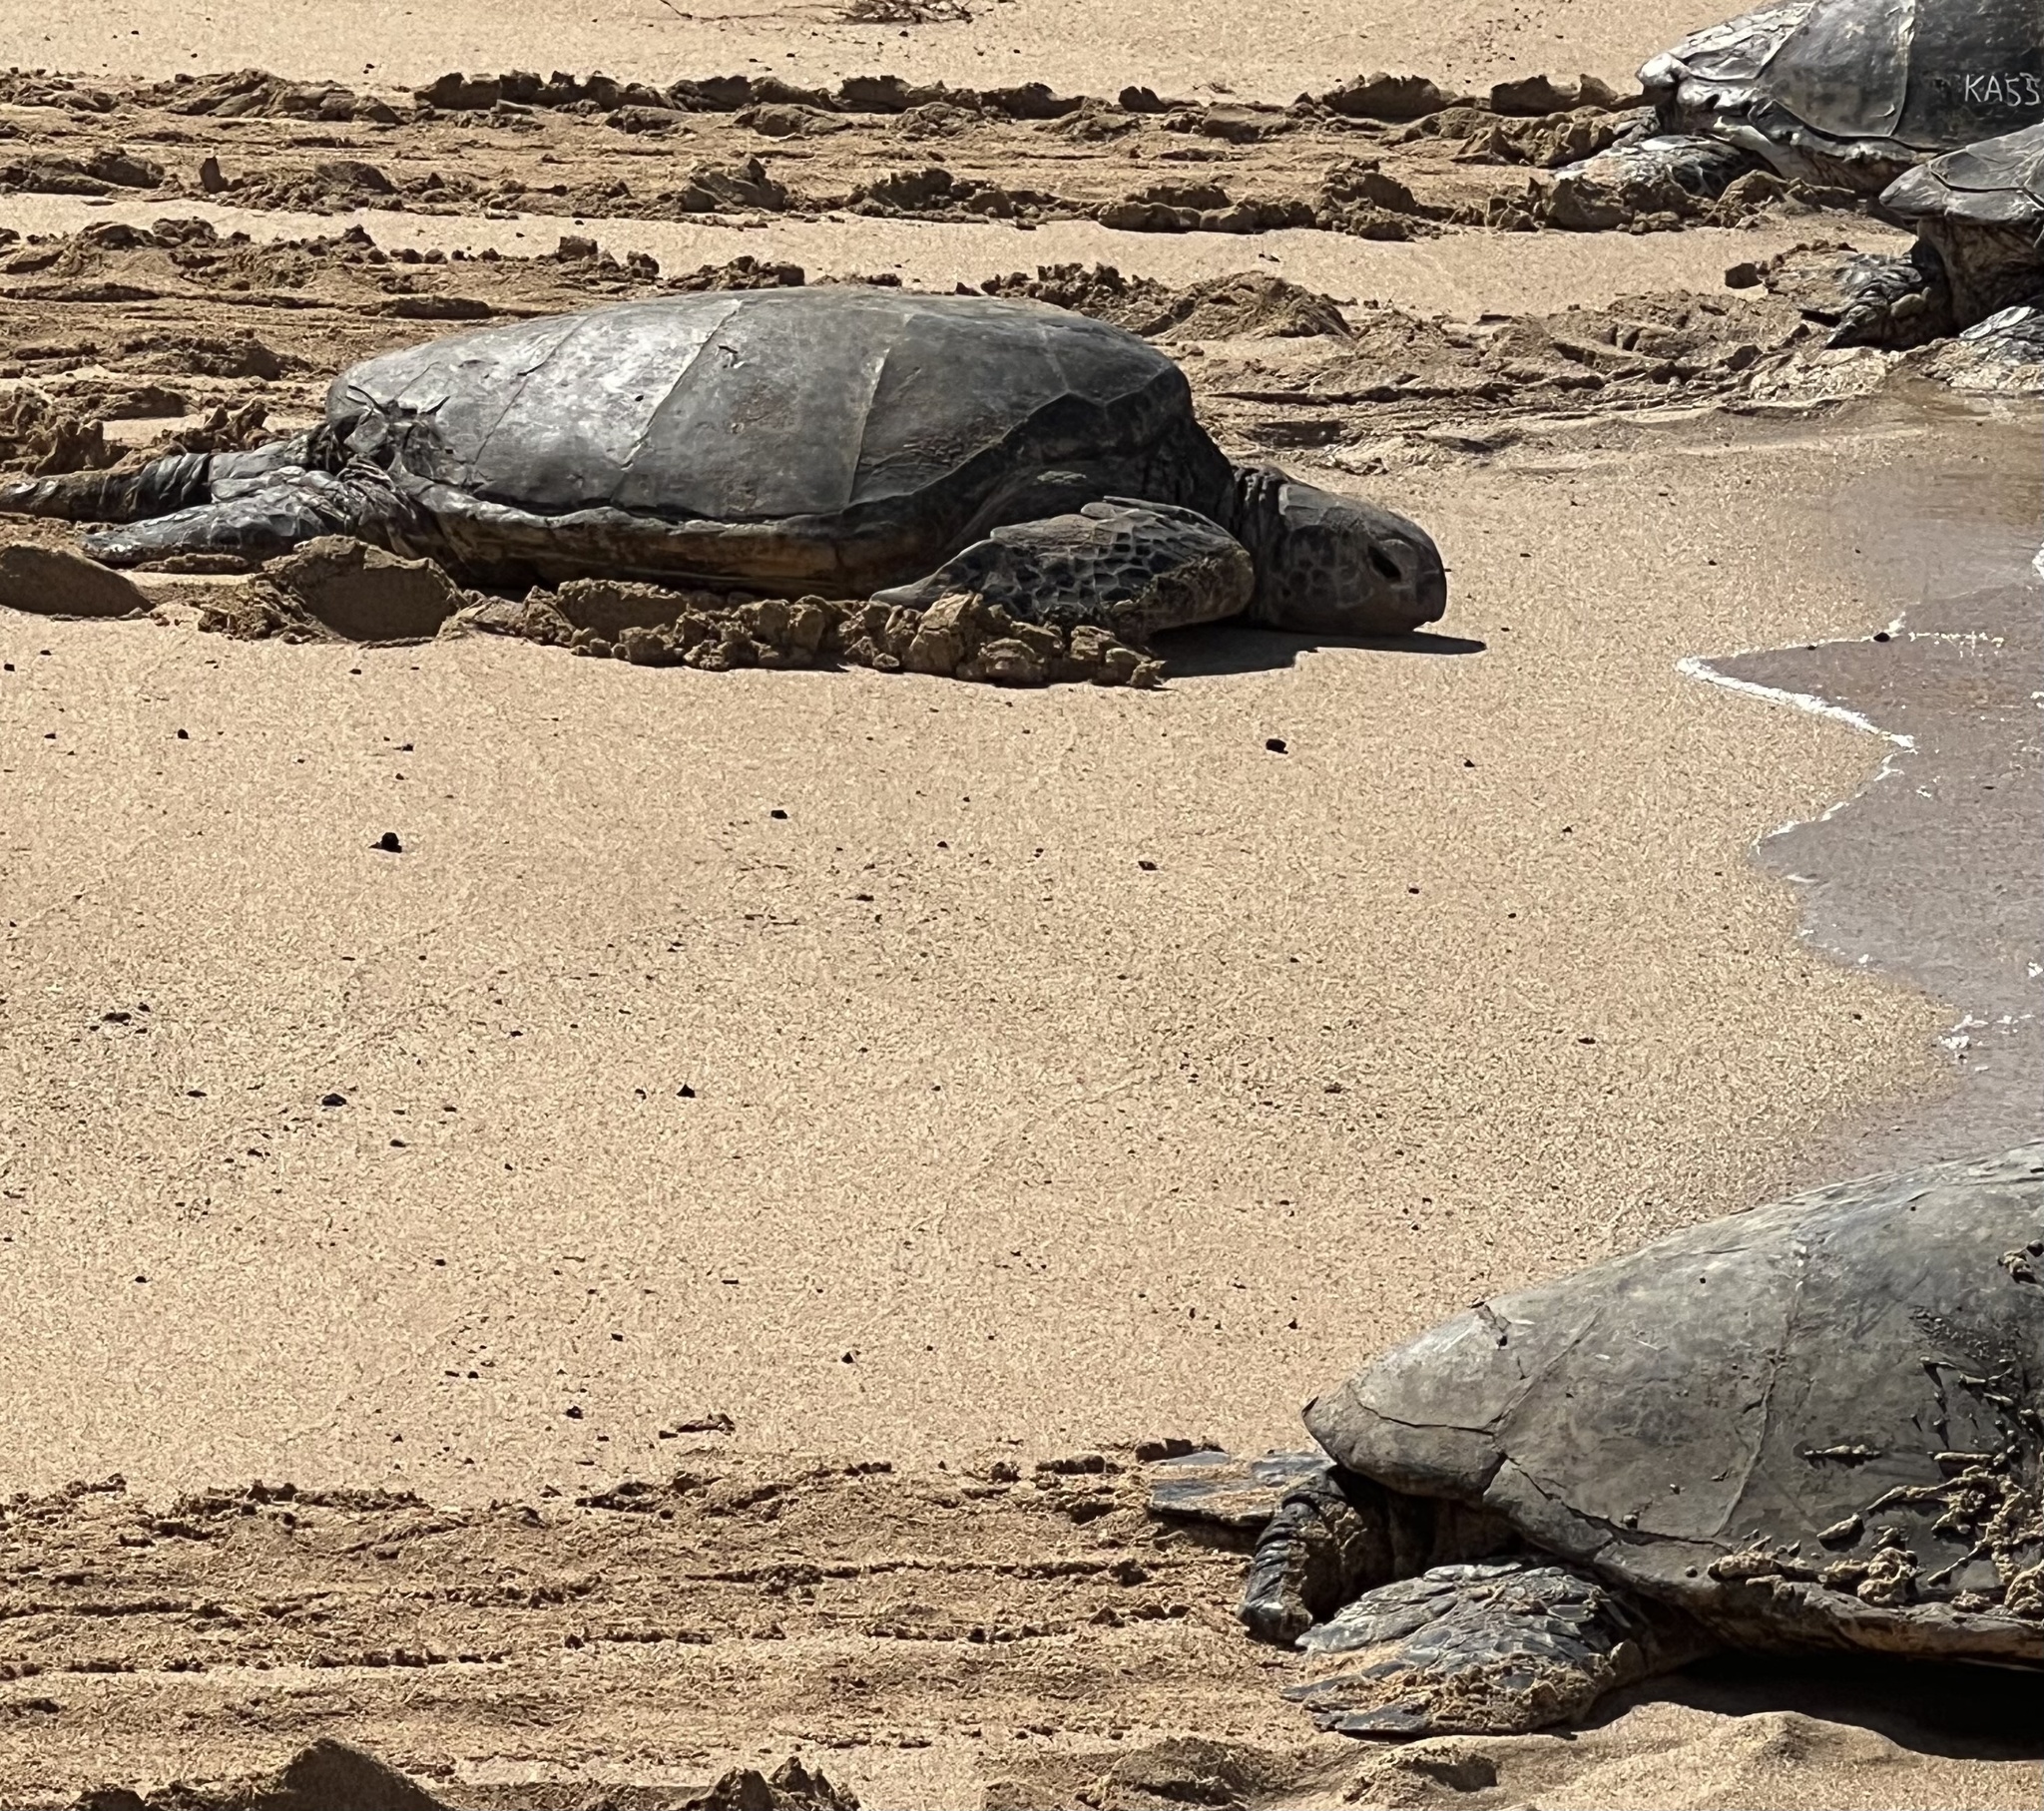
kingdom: Animalia
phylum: Chordata
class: Testudines
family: Cheloniidae
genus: Chelonia
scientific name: Chelonia mydas
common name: Green turtle
